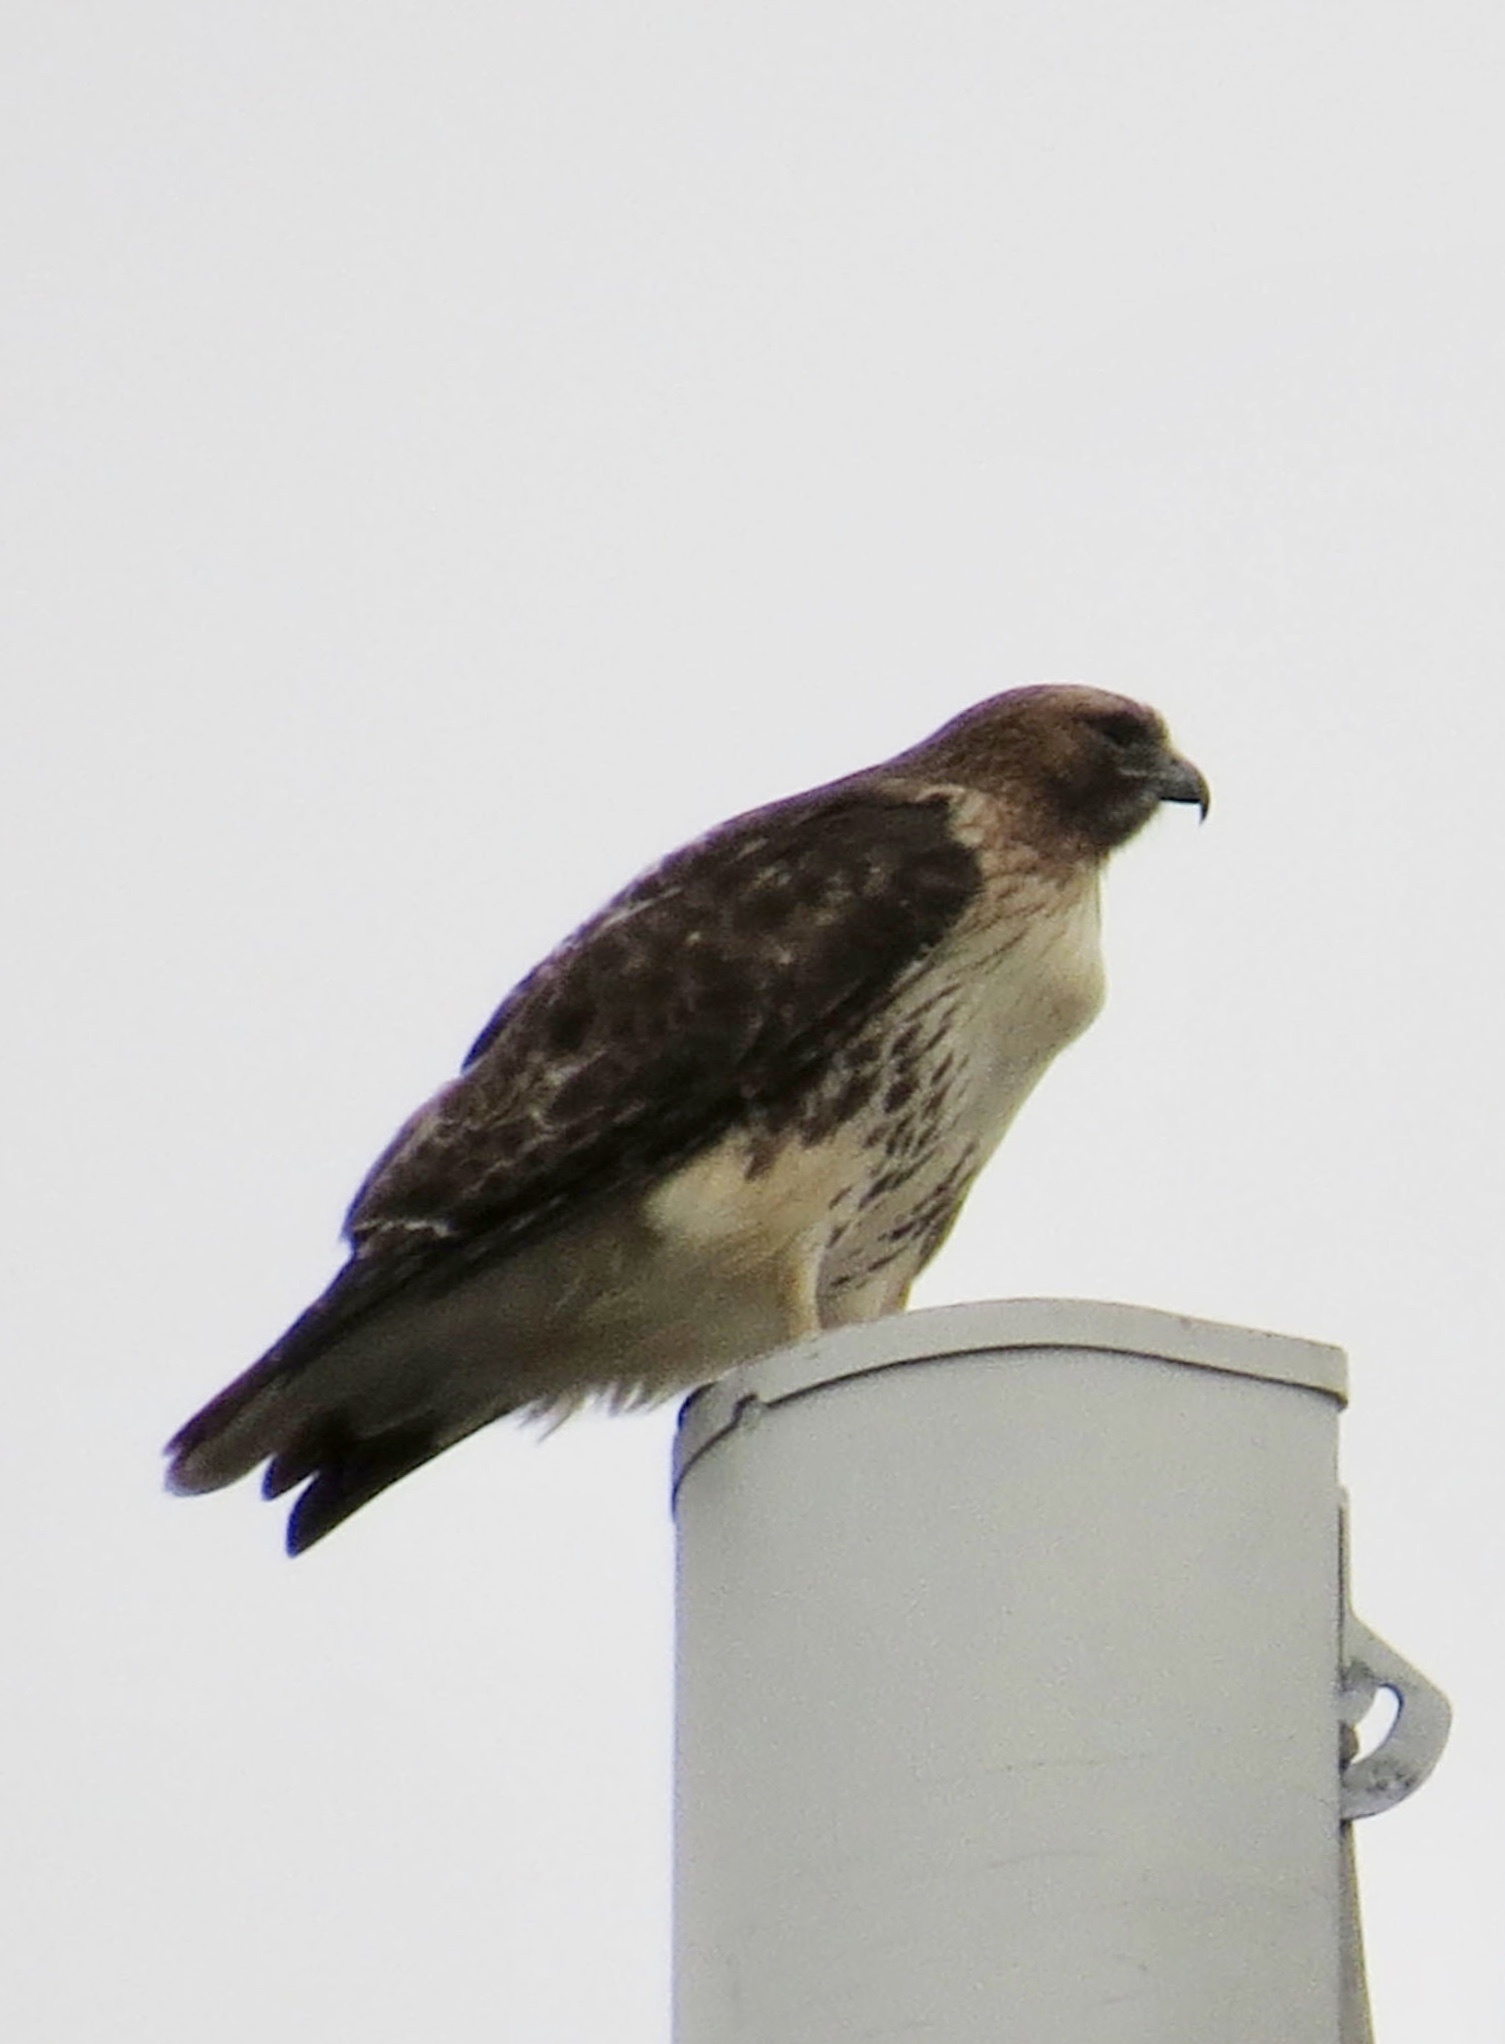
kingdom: Animalia
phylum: Chordata
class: Aves
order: Accipitriformes
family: Accipitridae
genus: Buteo
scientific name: Buteo jamaicensis
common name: Red-tailed hawk
